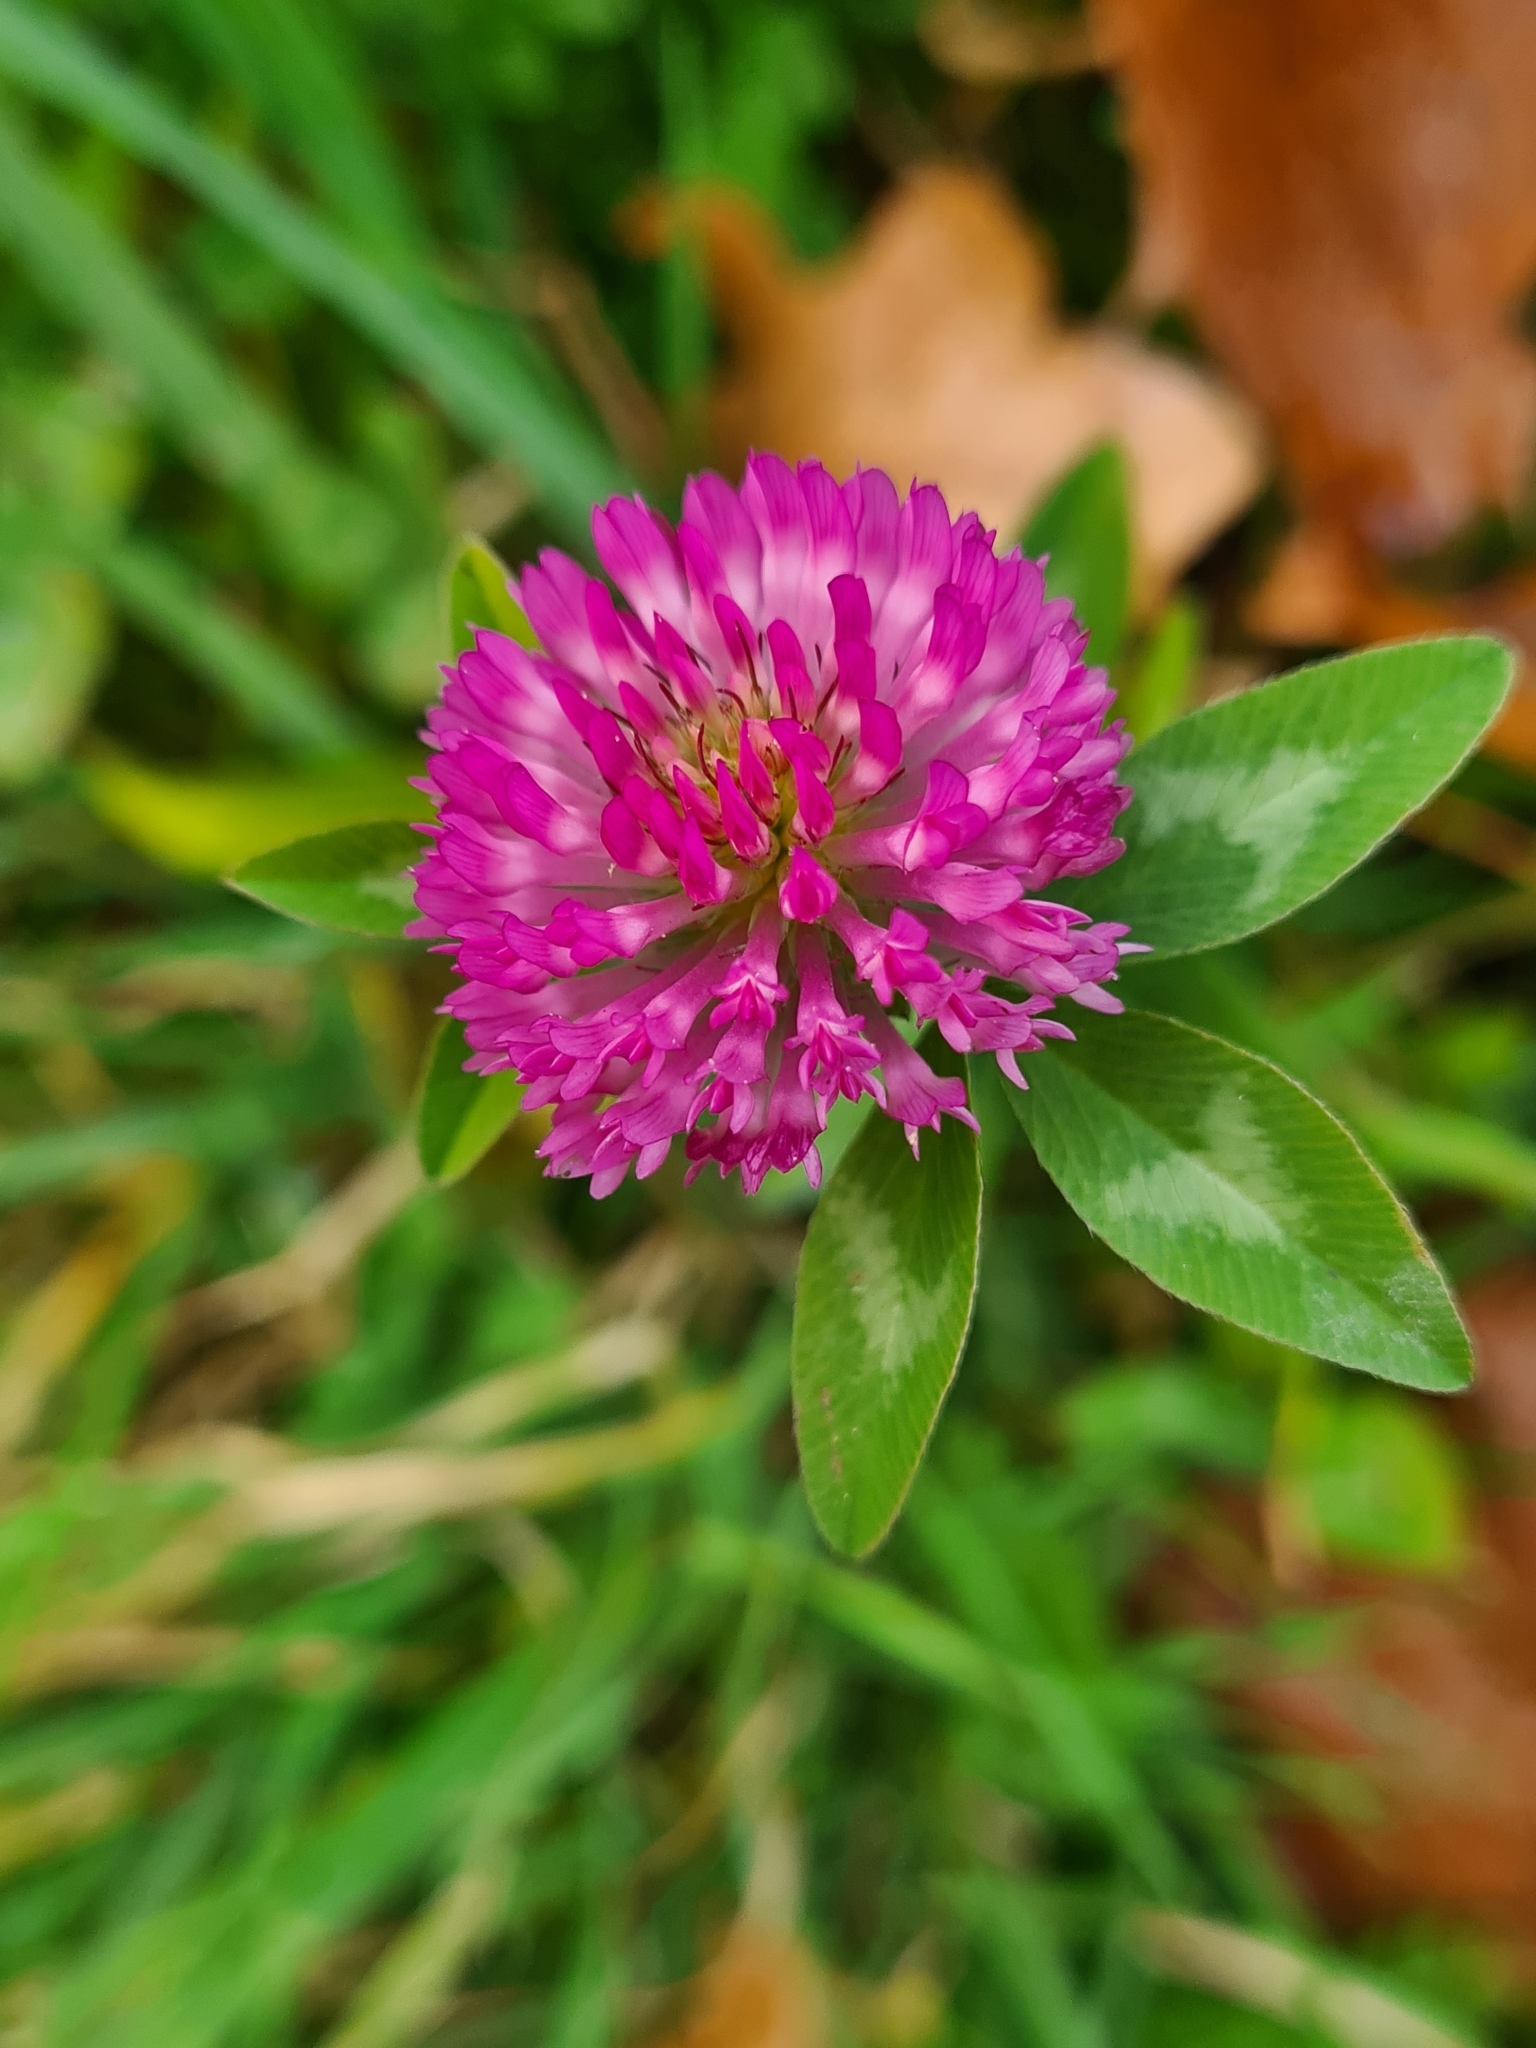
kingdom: Plantae
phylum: Tracheophyta
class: Magnoliopsida
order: Fabales
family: Fabaceae
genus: Trifolium
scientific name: Trifolium pratense
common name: Red clover
